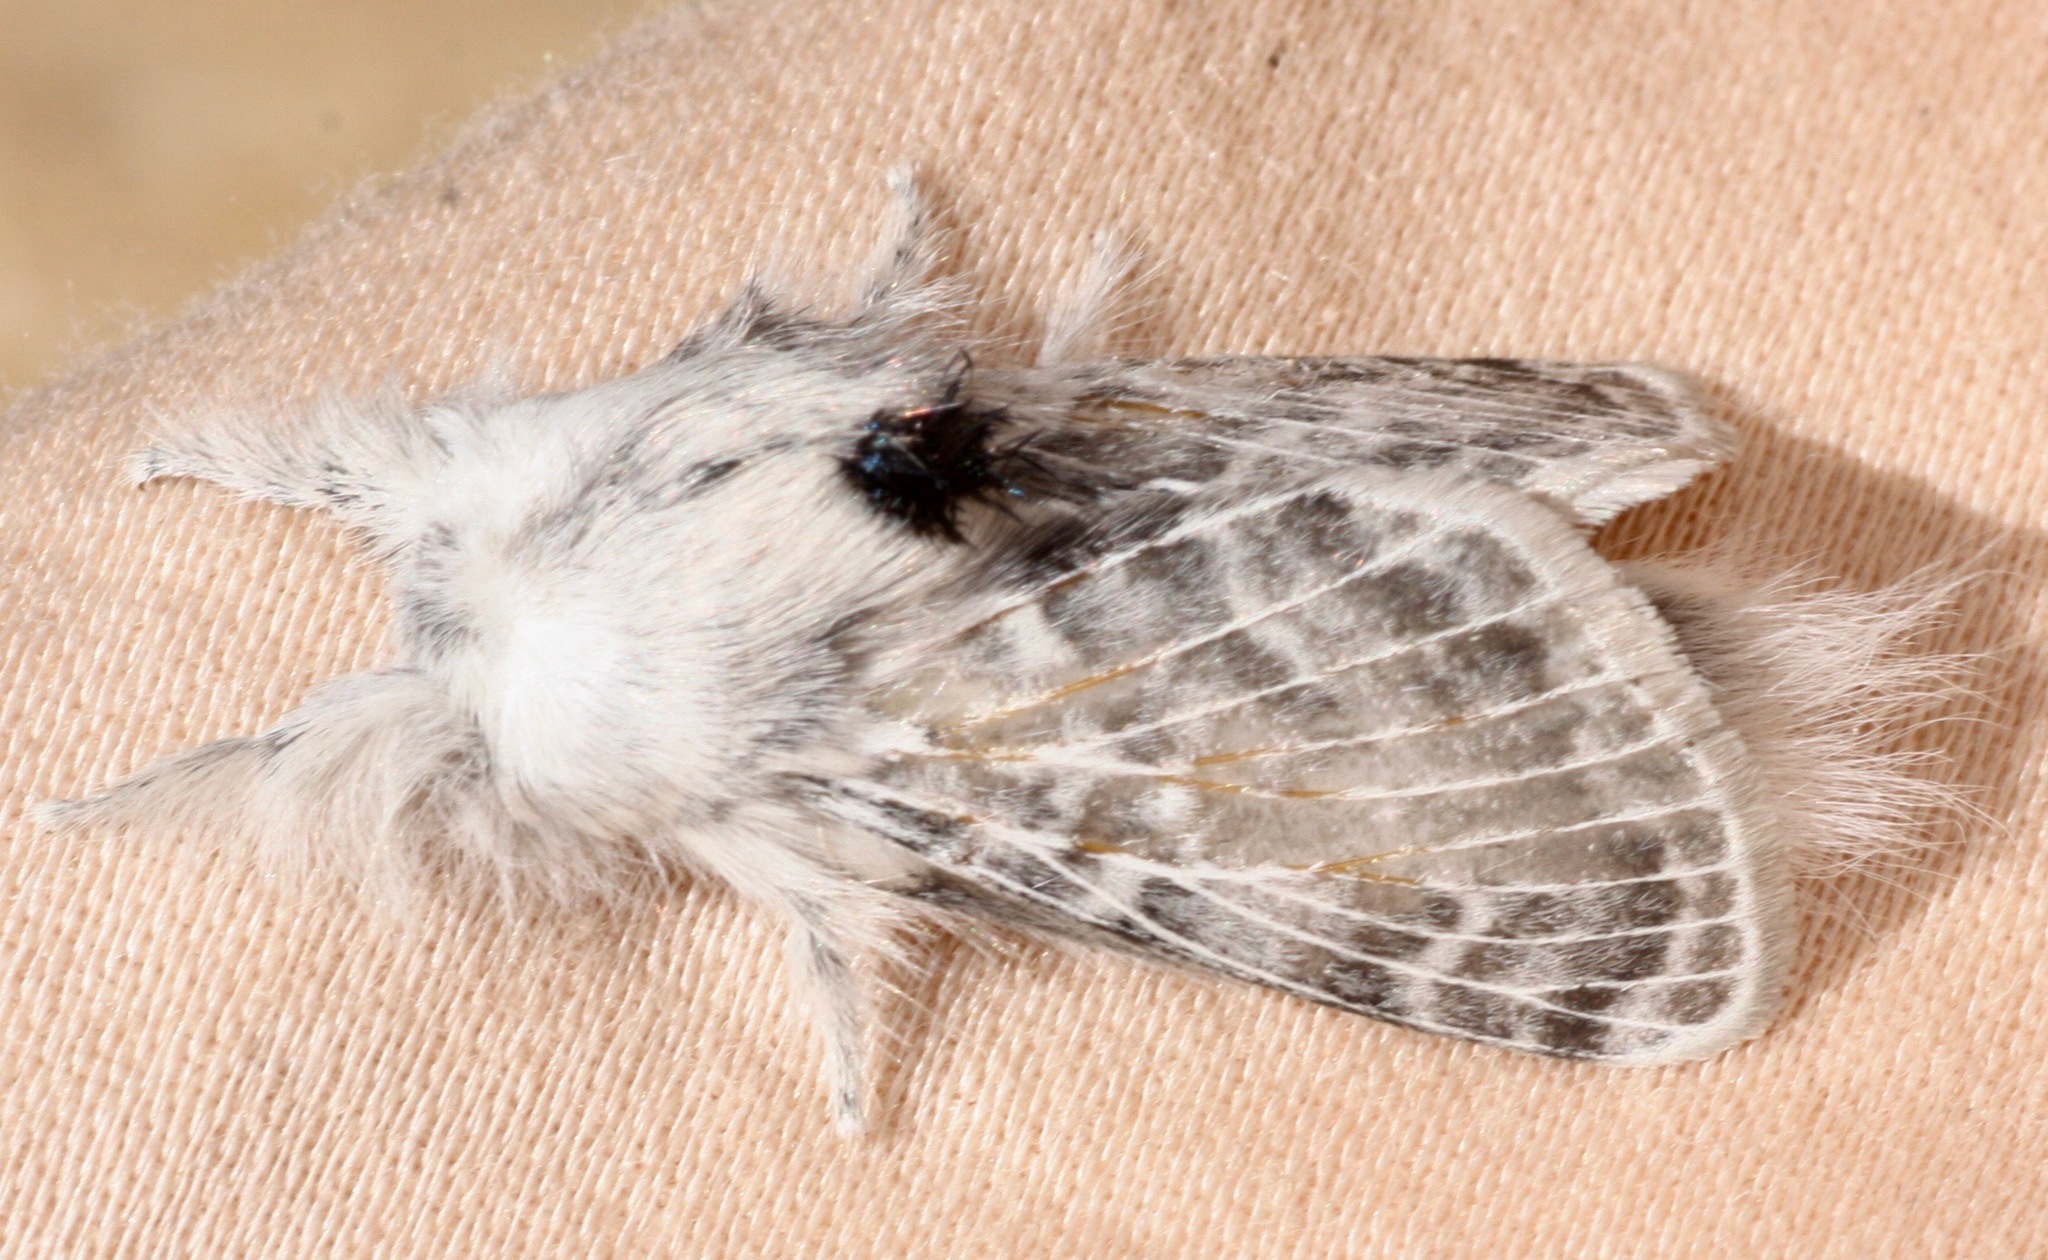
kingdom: Animalia
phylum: Arthropoda
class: Insecta
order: Lepidoptera
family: Lasiocampidae
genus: Apotolype
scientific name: Apotolype brevicrista
